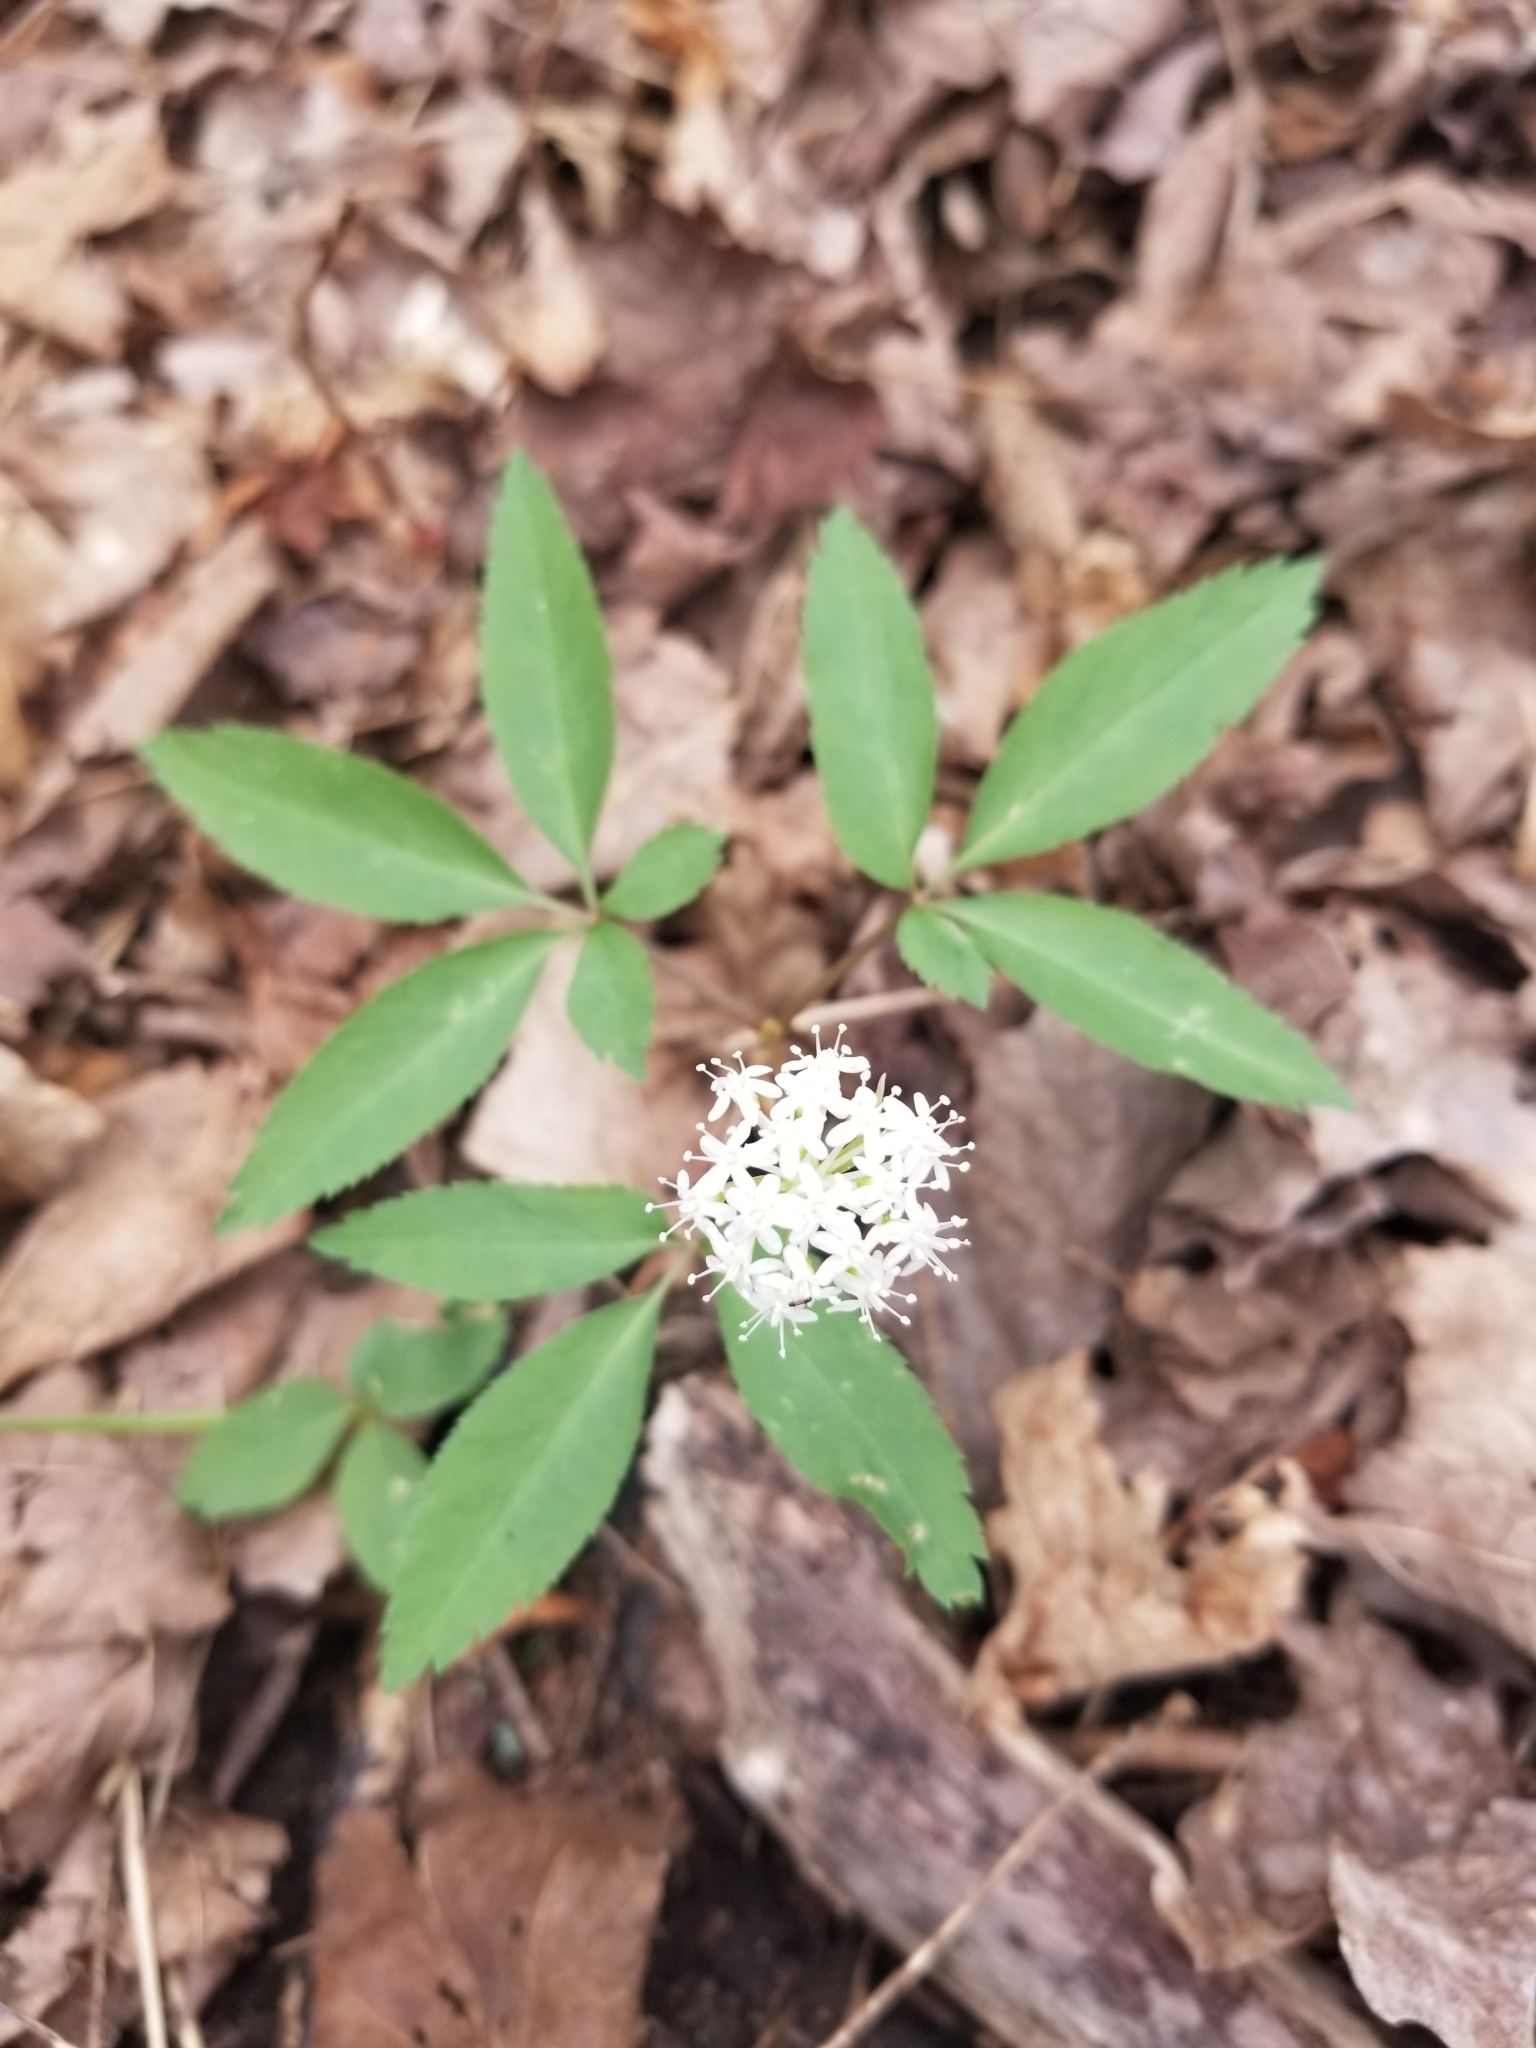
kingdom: Plantae
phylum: Tracheophyta
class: Magnoliopsida
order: Apiales
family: Araliaceae
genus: Panax
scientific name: Panax trifolius
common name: Dwarf ginseng
